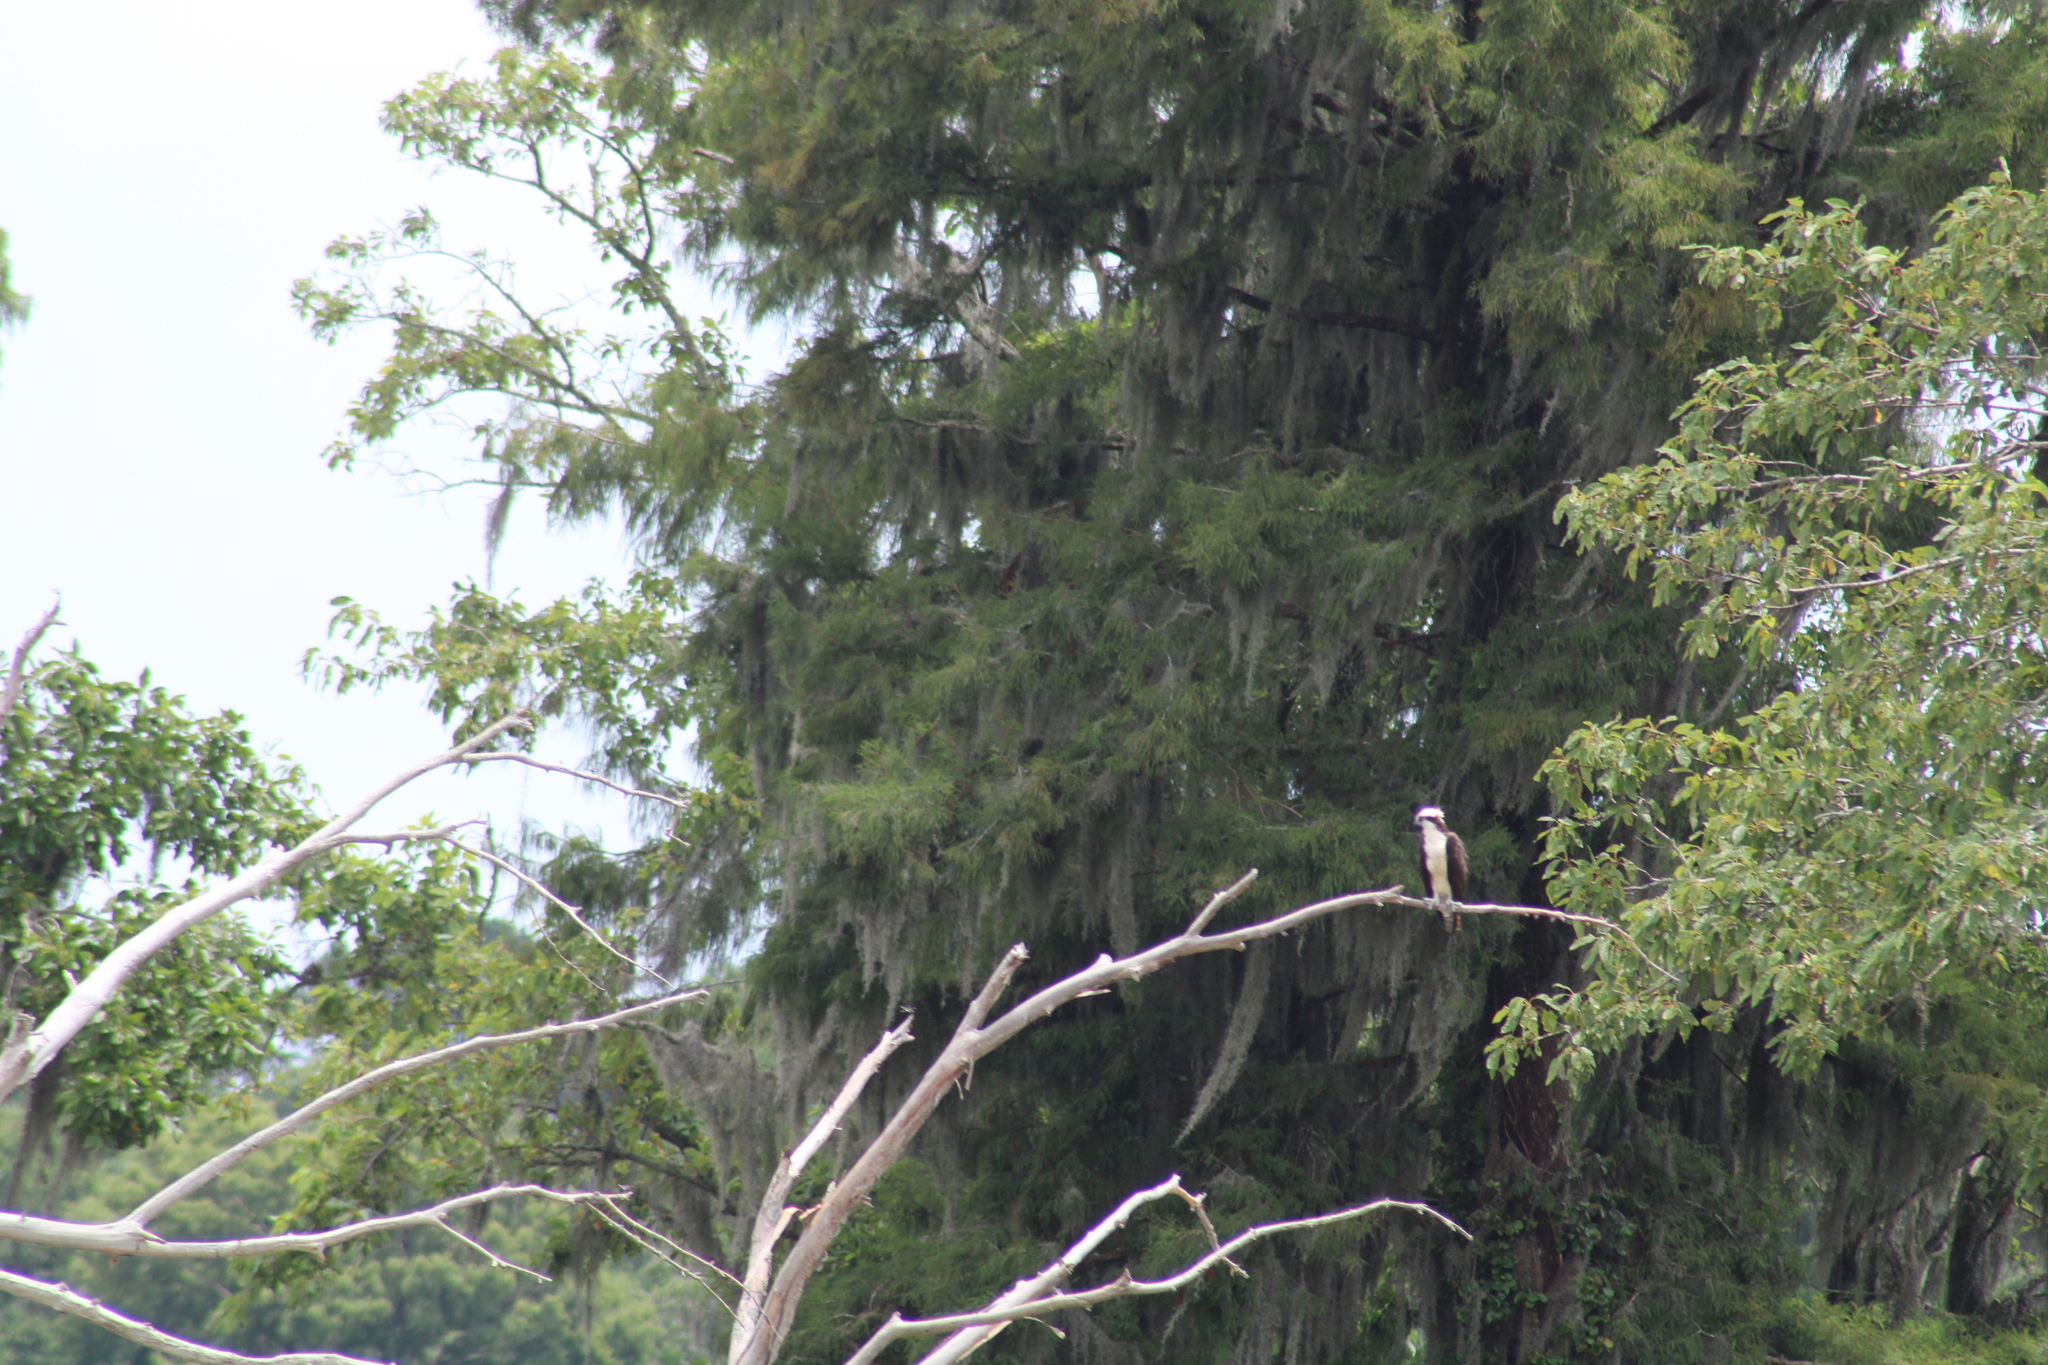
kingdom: Animalia
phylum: Chordata
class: Aves
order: Accipitriformes
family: Pandionidae
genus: Pandion
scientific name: Pandion haliaetus
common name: Osprey
